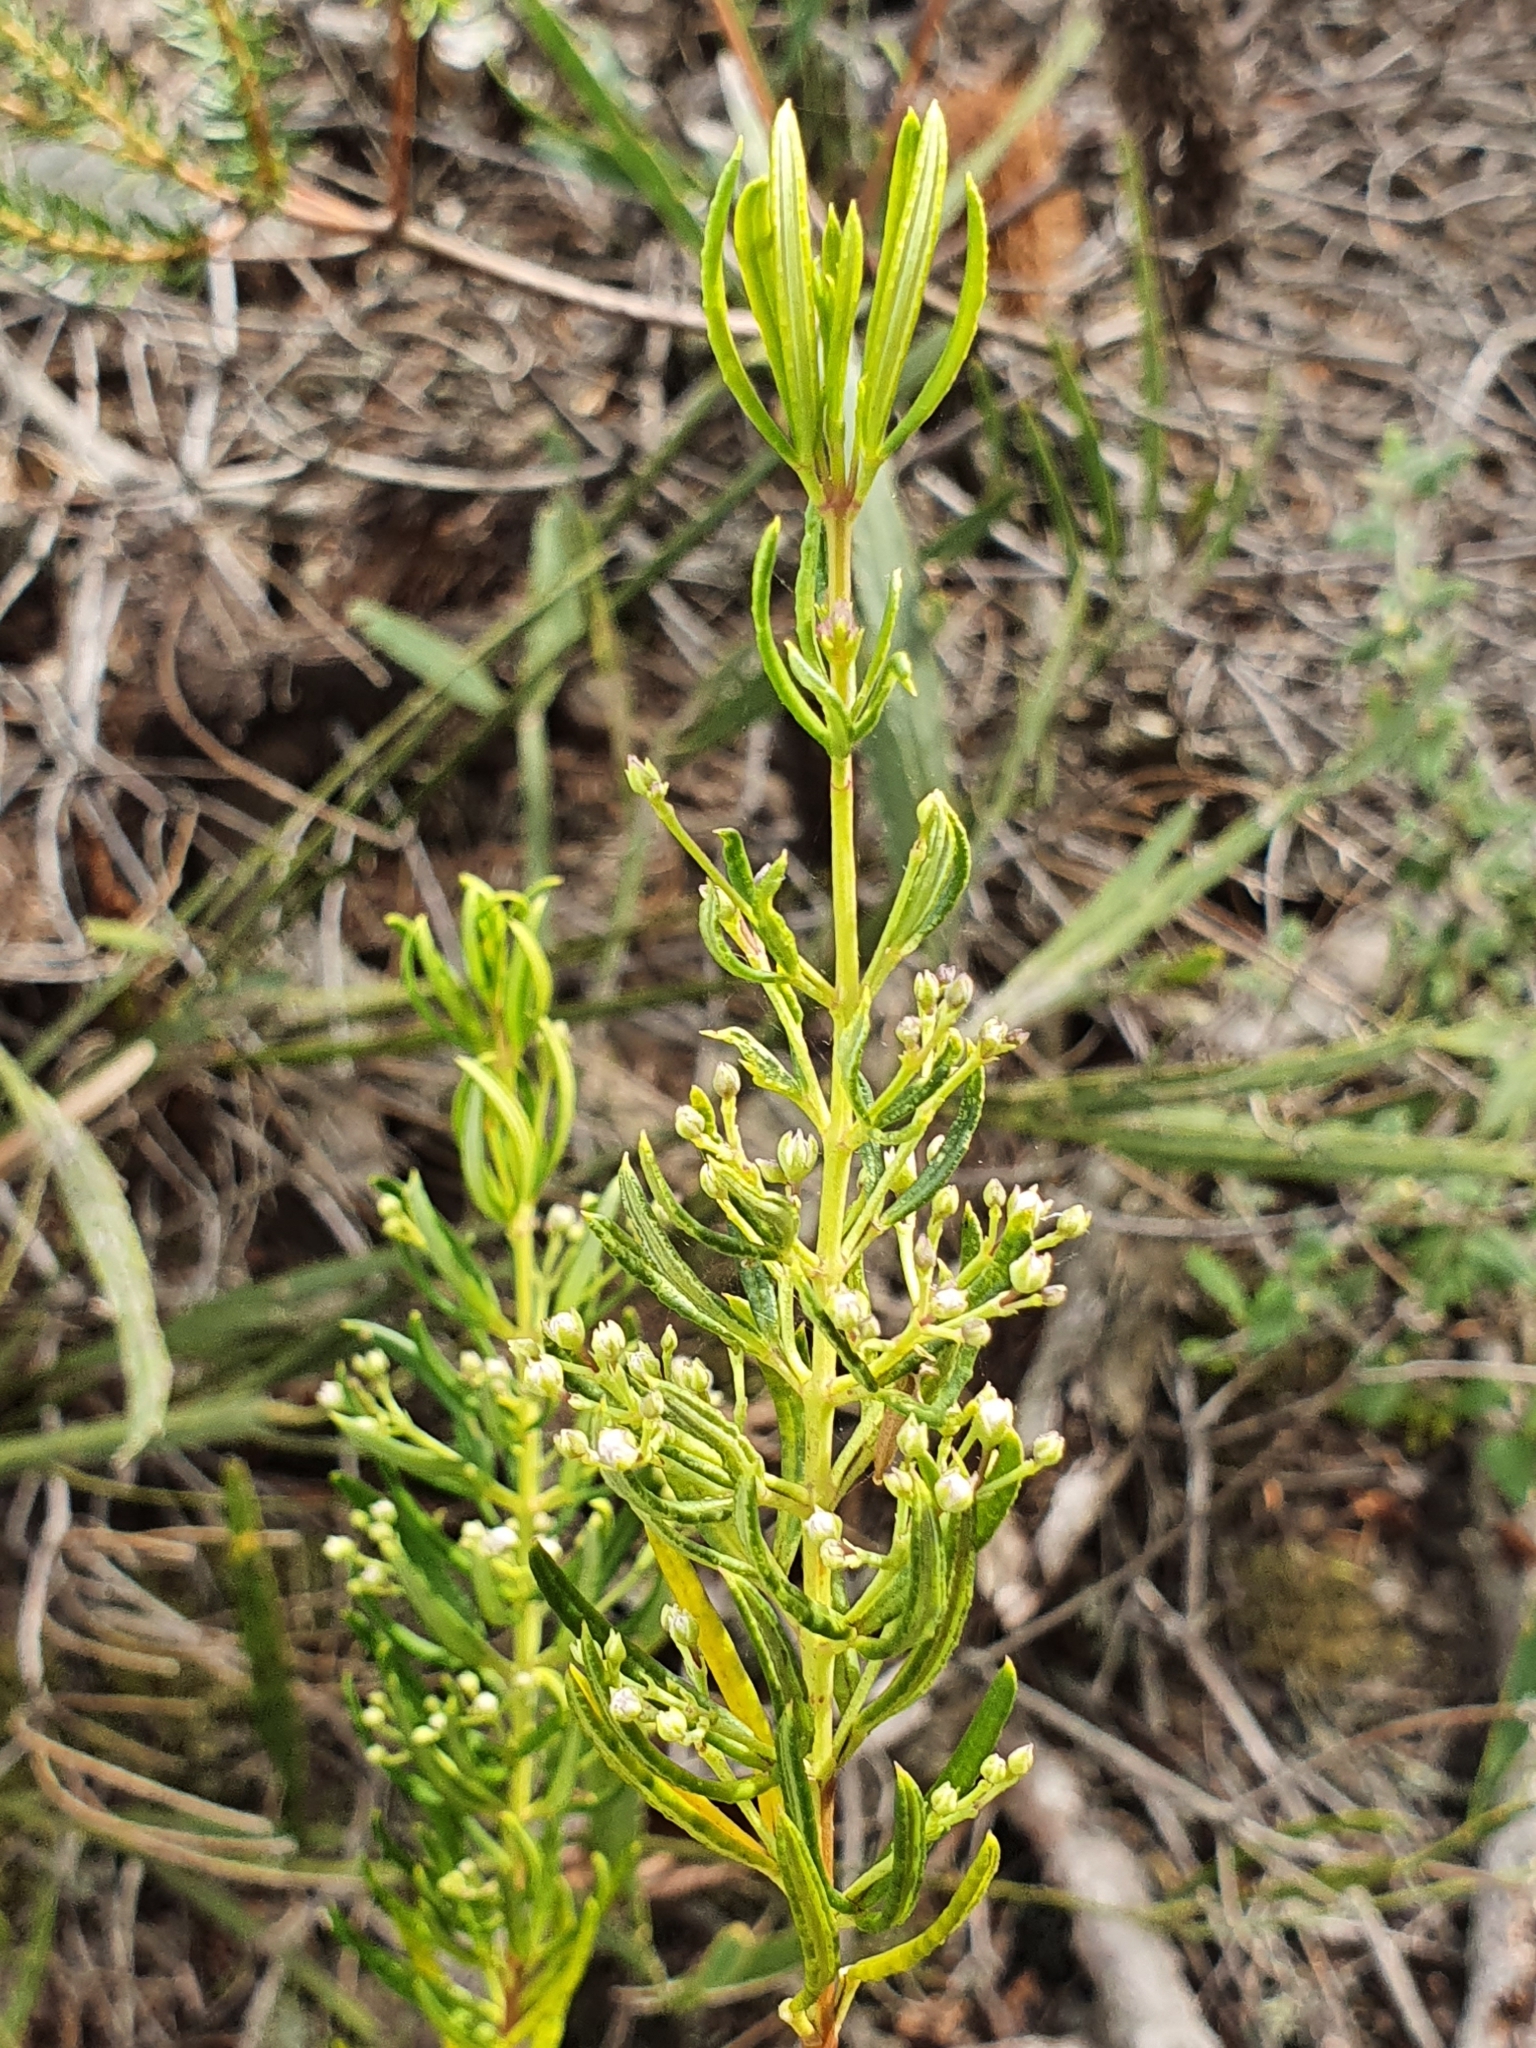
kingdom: Plantae
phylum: Tracheophyta
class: Magnoliopsida
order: Sapindales
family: Rutaceae
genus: Zieria
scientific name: Zieria laevigata
